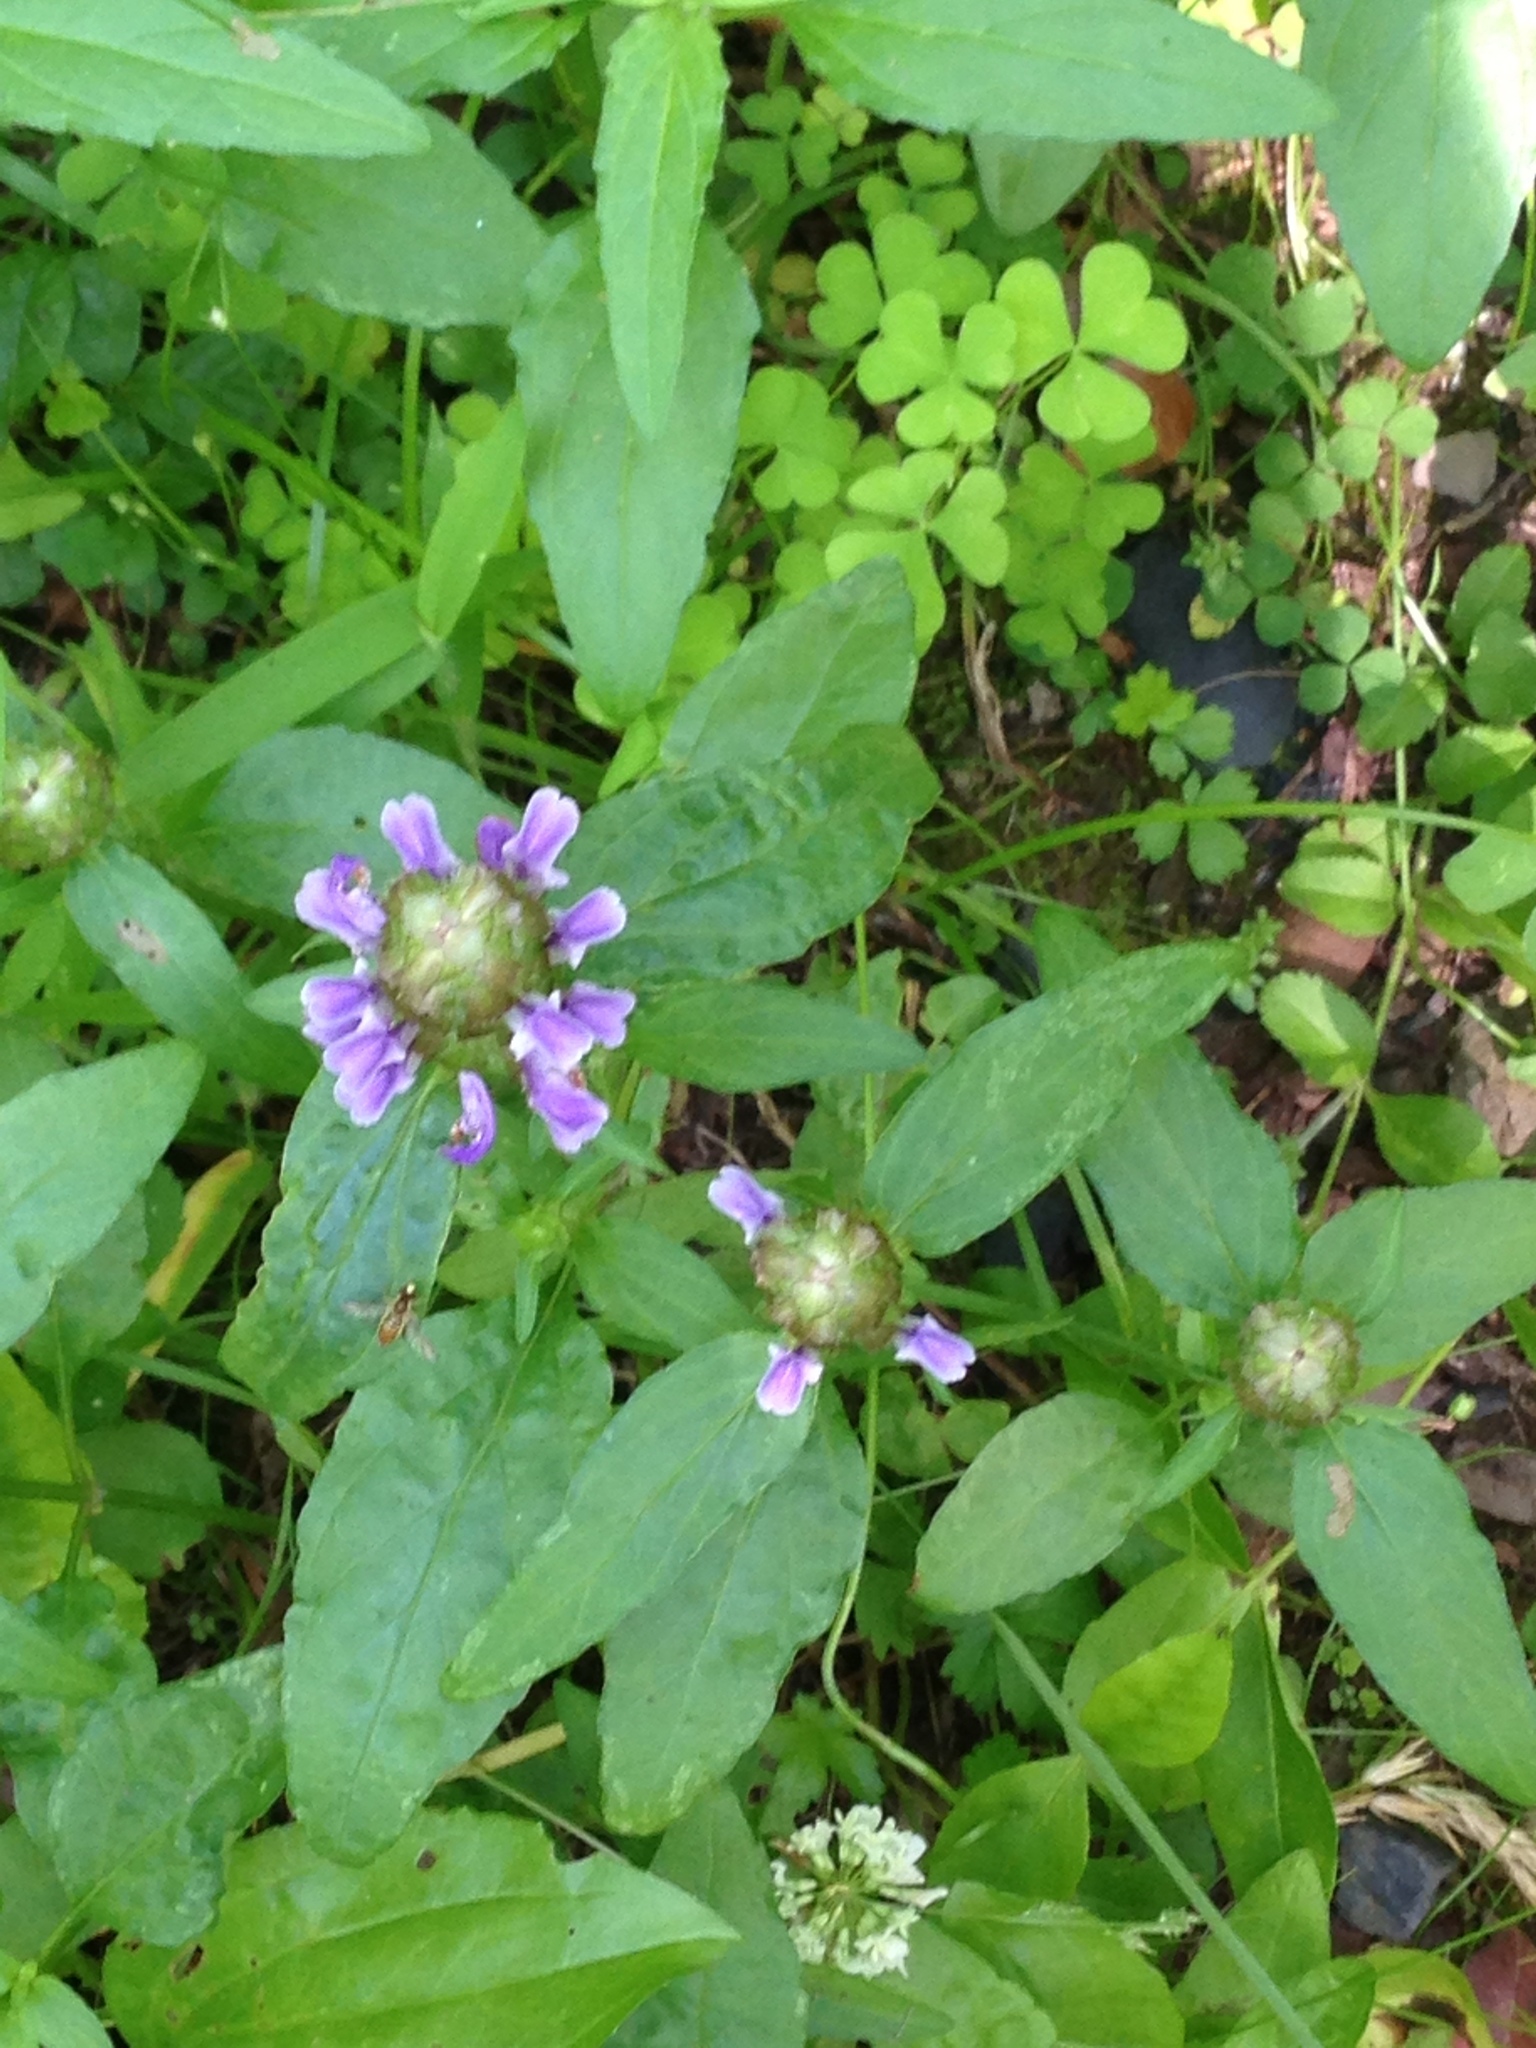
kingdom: Plantae
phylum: Tracheophyta
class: Magnoliopsida
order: Lamiales
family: Lamiaceae
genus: Prunella
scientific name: Prunella vulgaris
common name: Heal-all
